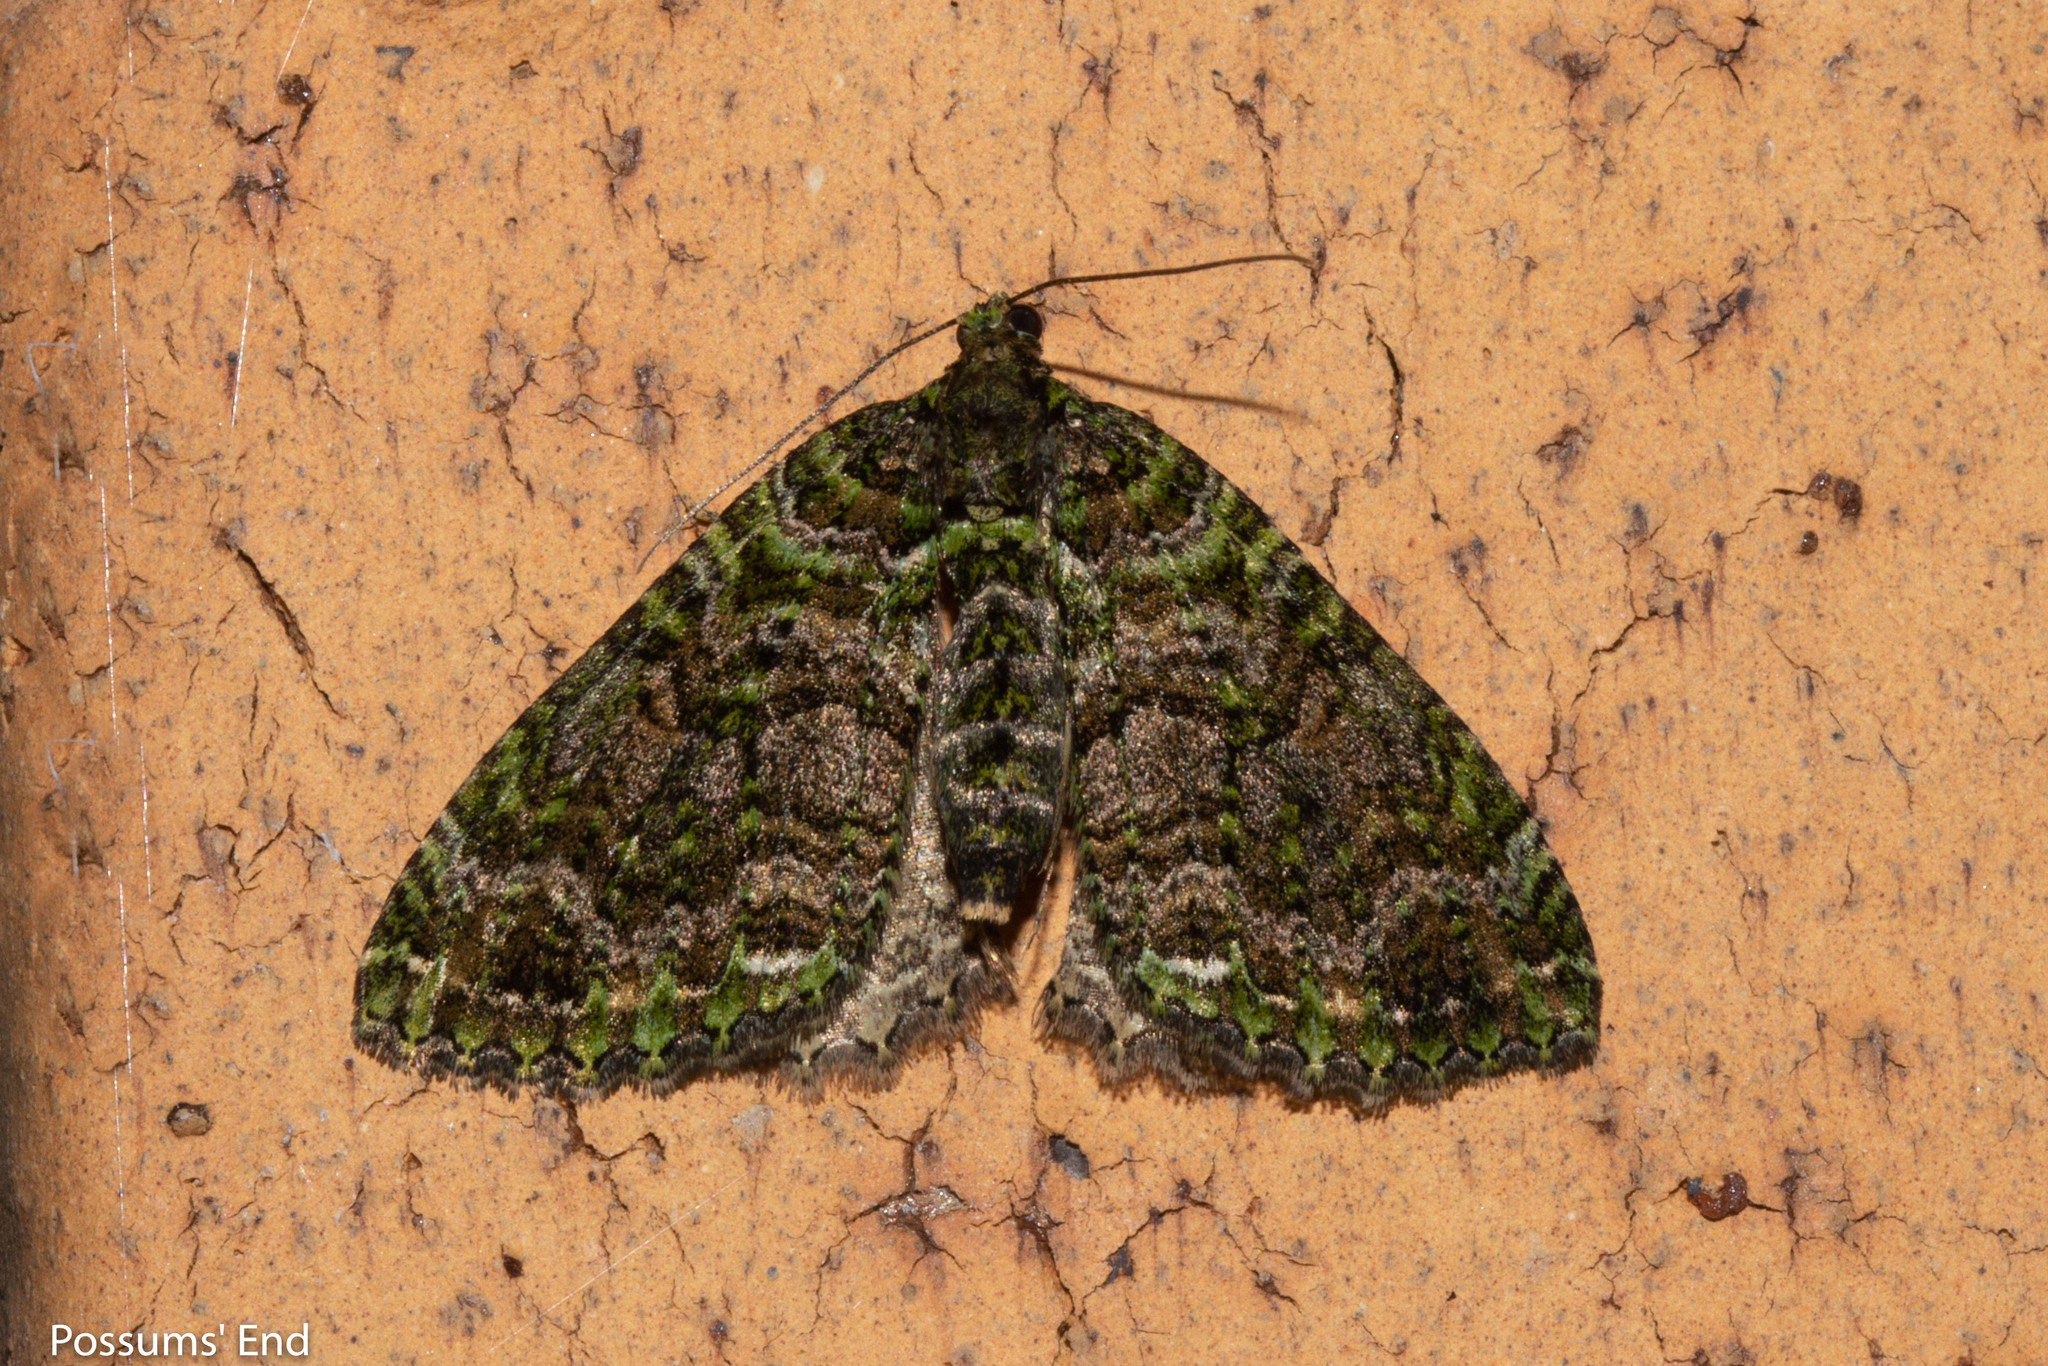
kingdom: Animalia
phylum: Arthropoda
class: Insecta
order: Lepidoptera
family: Geometridae
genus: Austrocidaria
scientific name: Austrocidaria similata
